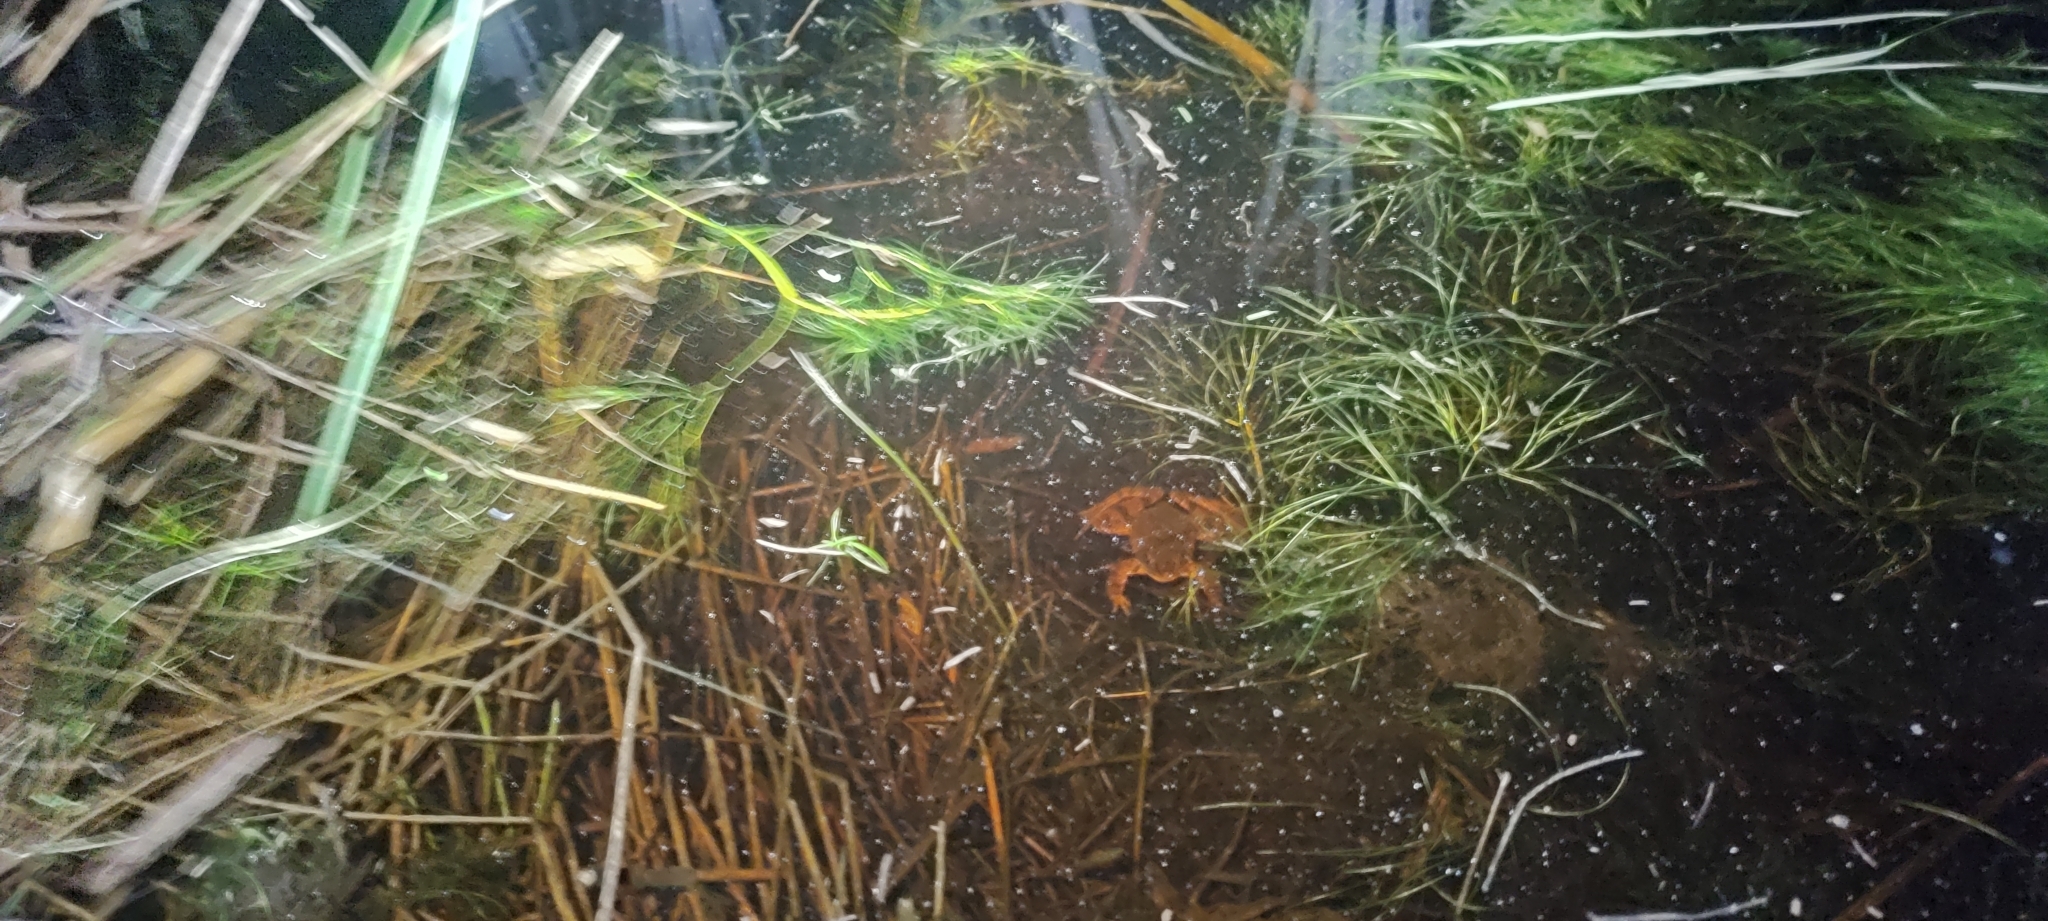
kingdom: Animalia
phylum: Chordata
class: Amphibia
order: Anura
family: Ranidae
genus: Rana
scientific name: Rana dalmatina
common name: Agile frog
